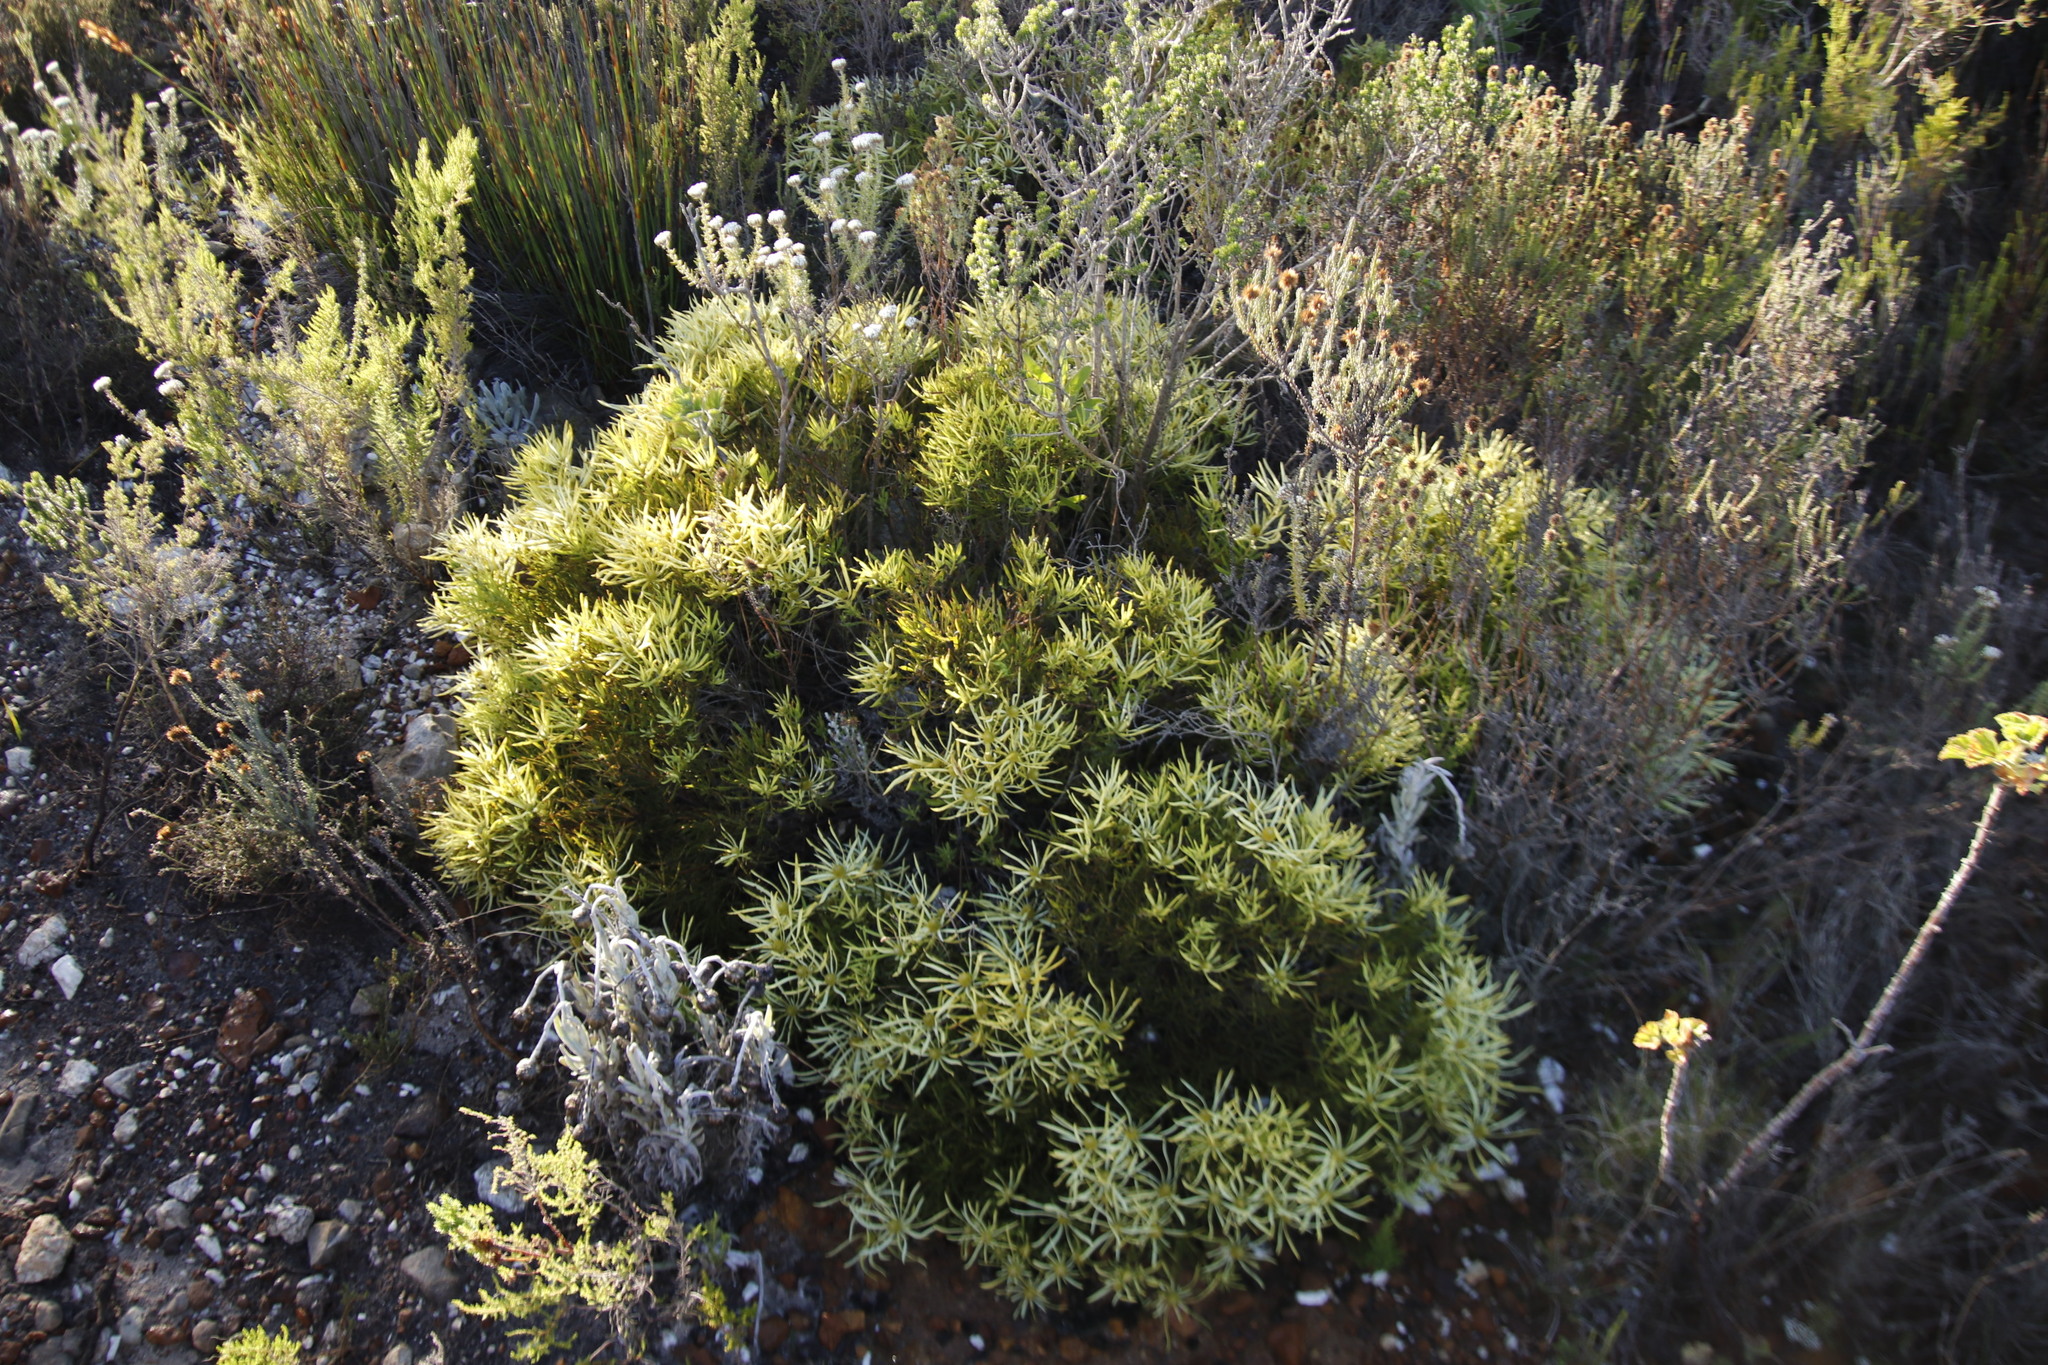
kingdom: Plantae
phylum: Tracheophyta
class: Magnoliopsida
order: Proteales
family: Proteaceae
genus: Leucadendron
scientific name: Leucadendron salignum
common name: Common sunshine conebush
